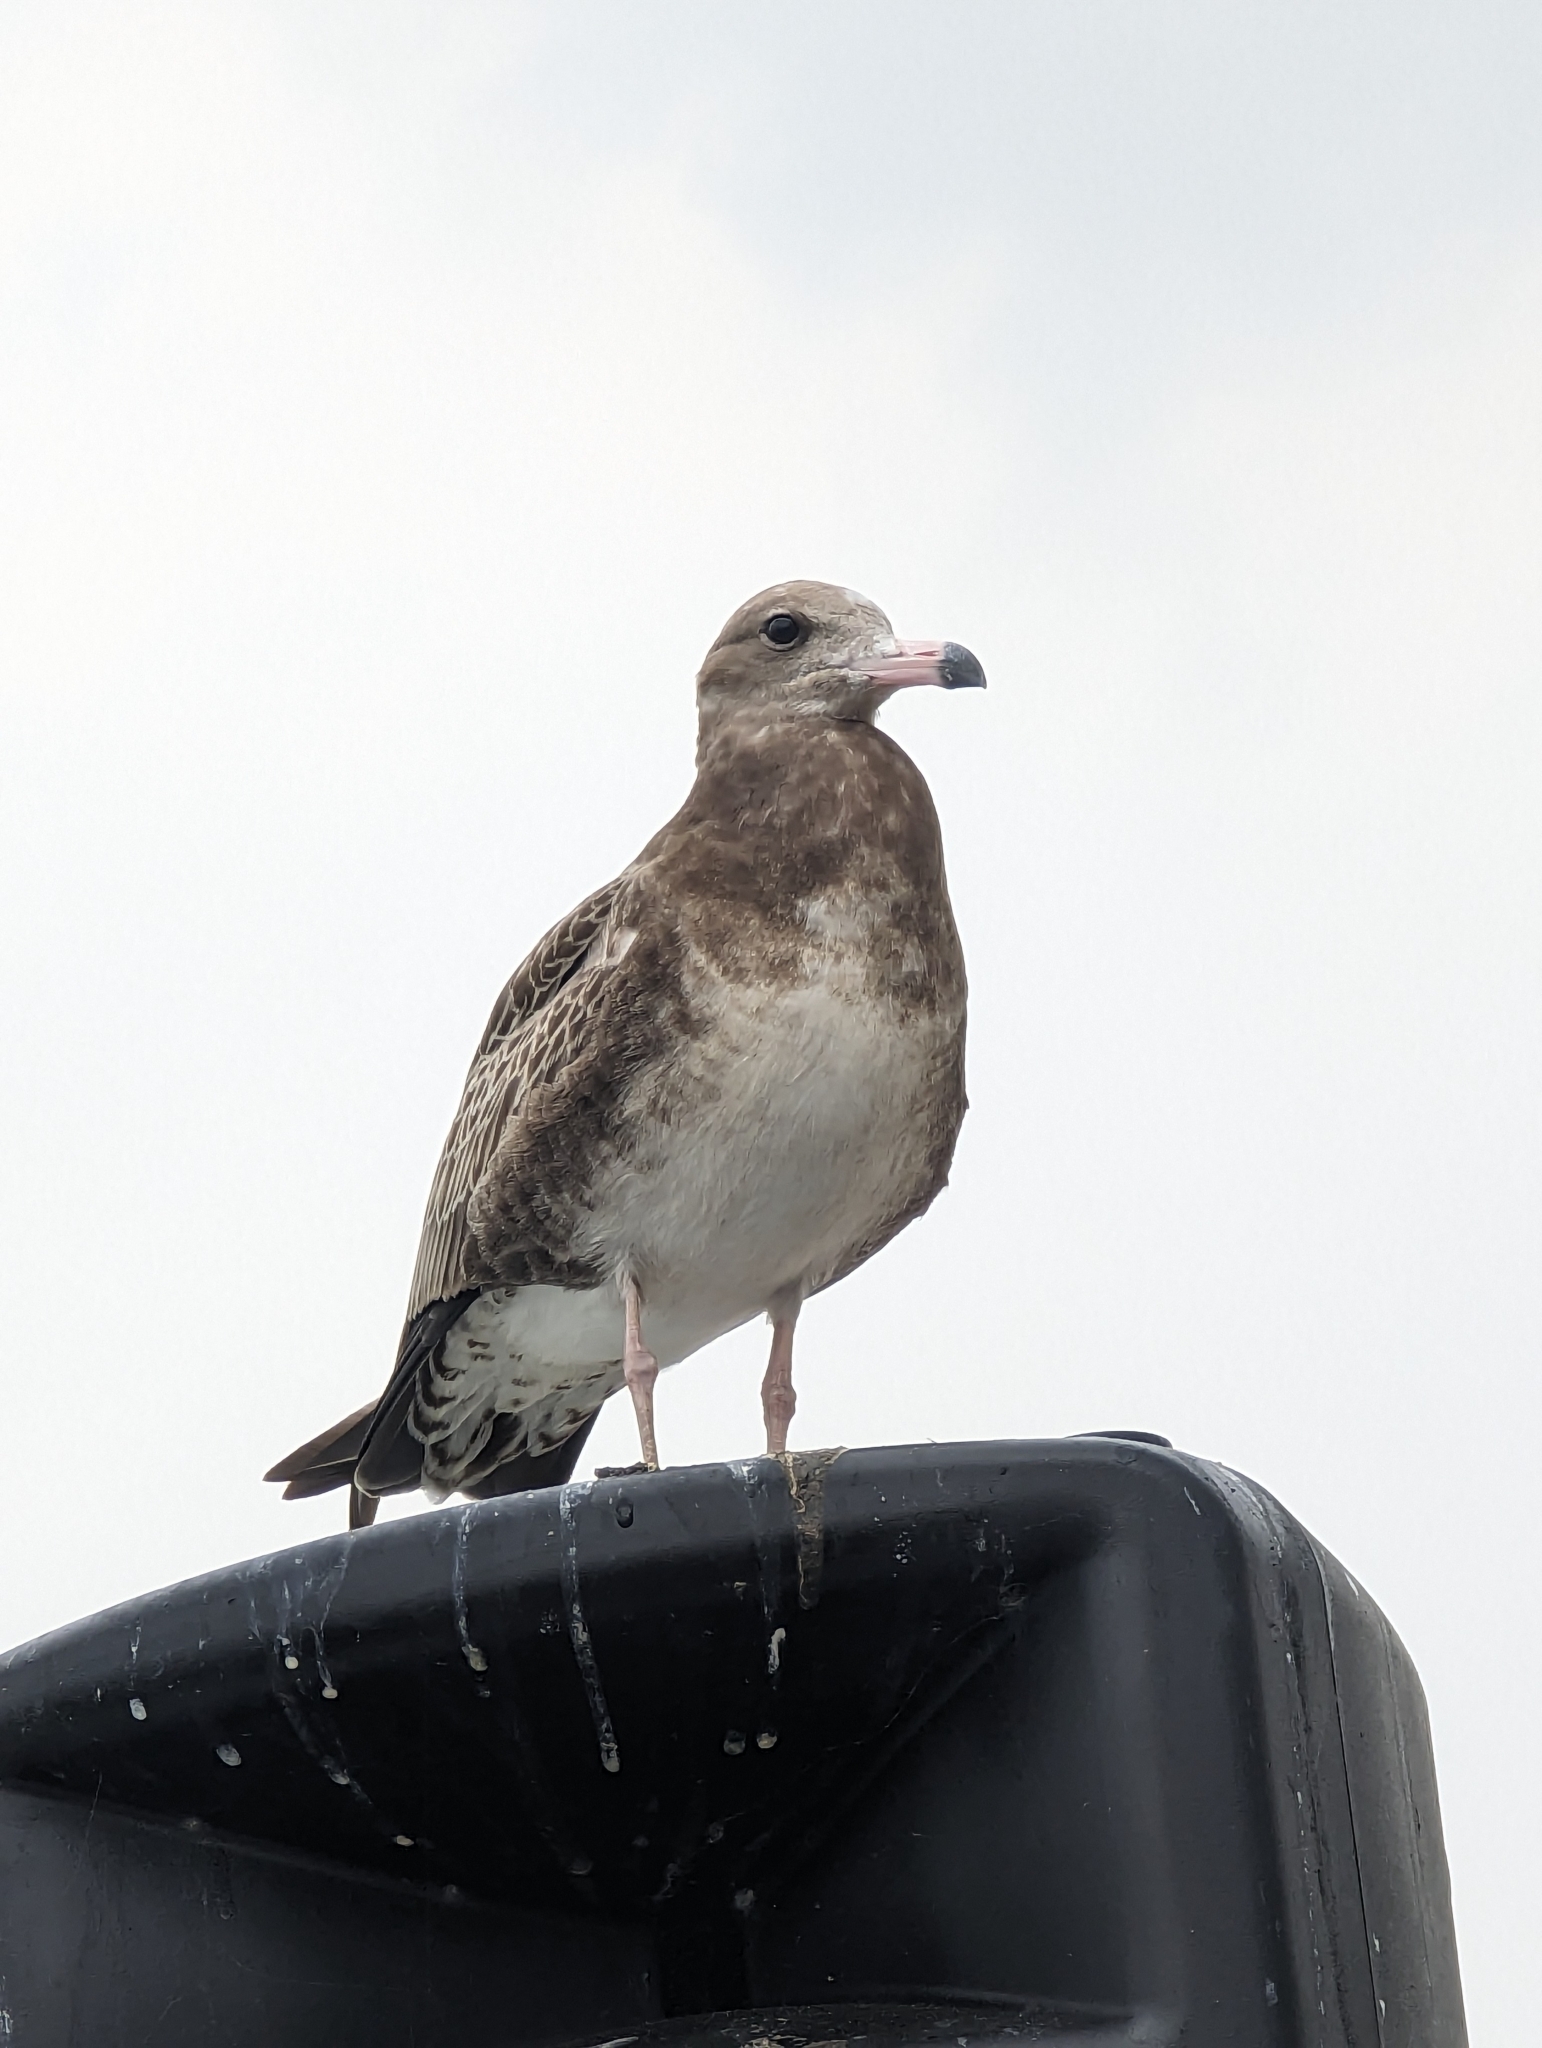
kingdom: Animalia
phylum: Chordata
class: Aves
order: Charadriiformes
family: Laridae
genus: Larus
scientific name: Larus crassirostris
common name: Black-tailed gull
